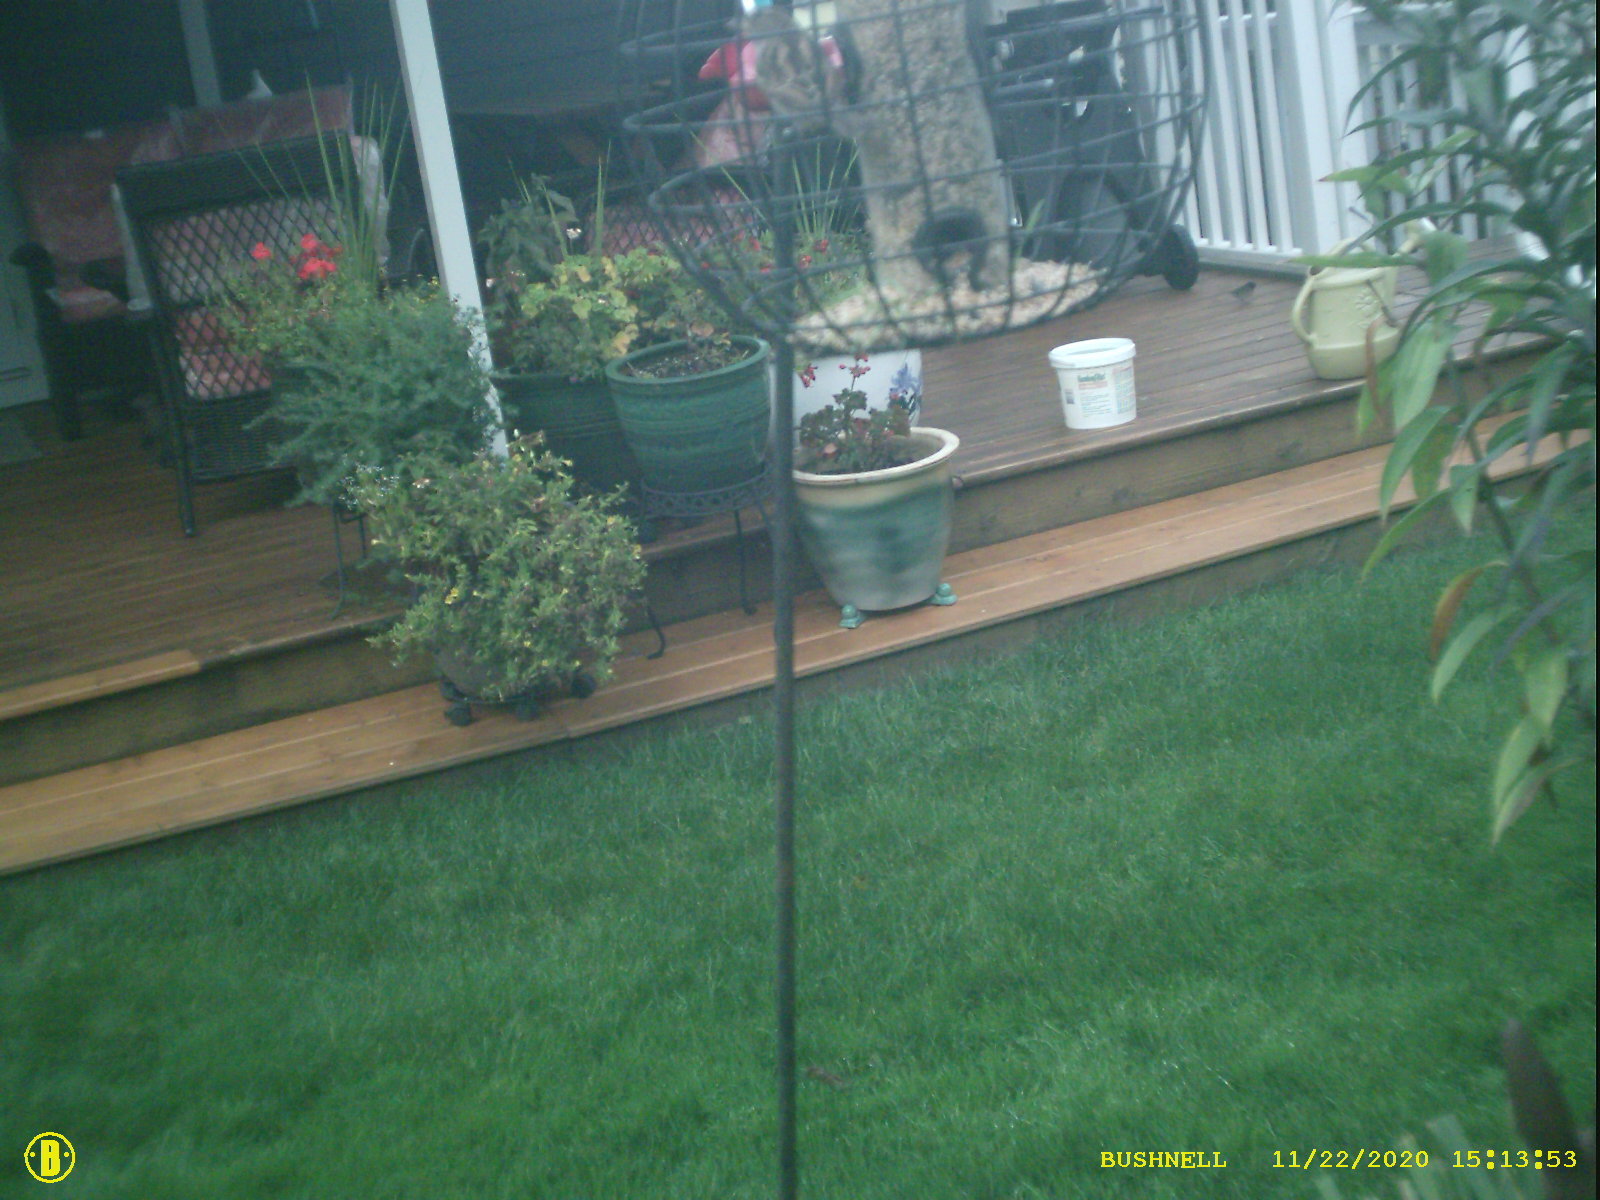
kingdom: Animalia
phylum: Chordata
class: Aves
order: Passeriformes
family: Passeridae
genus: Passer
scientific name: Passer domesticus
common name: House sparrow
